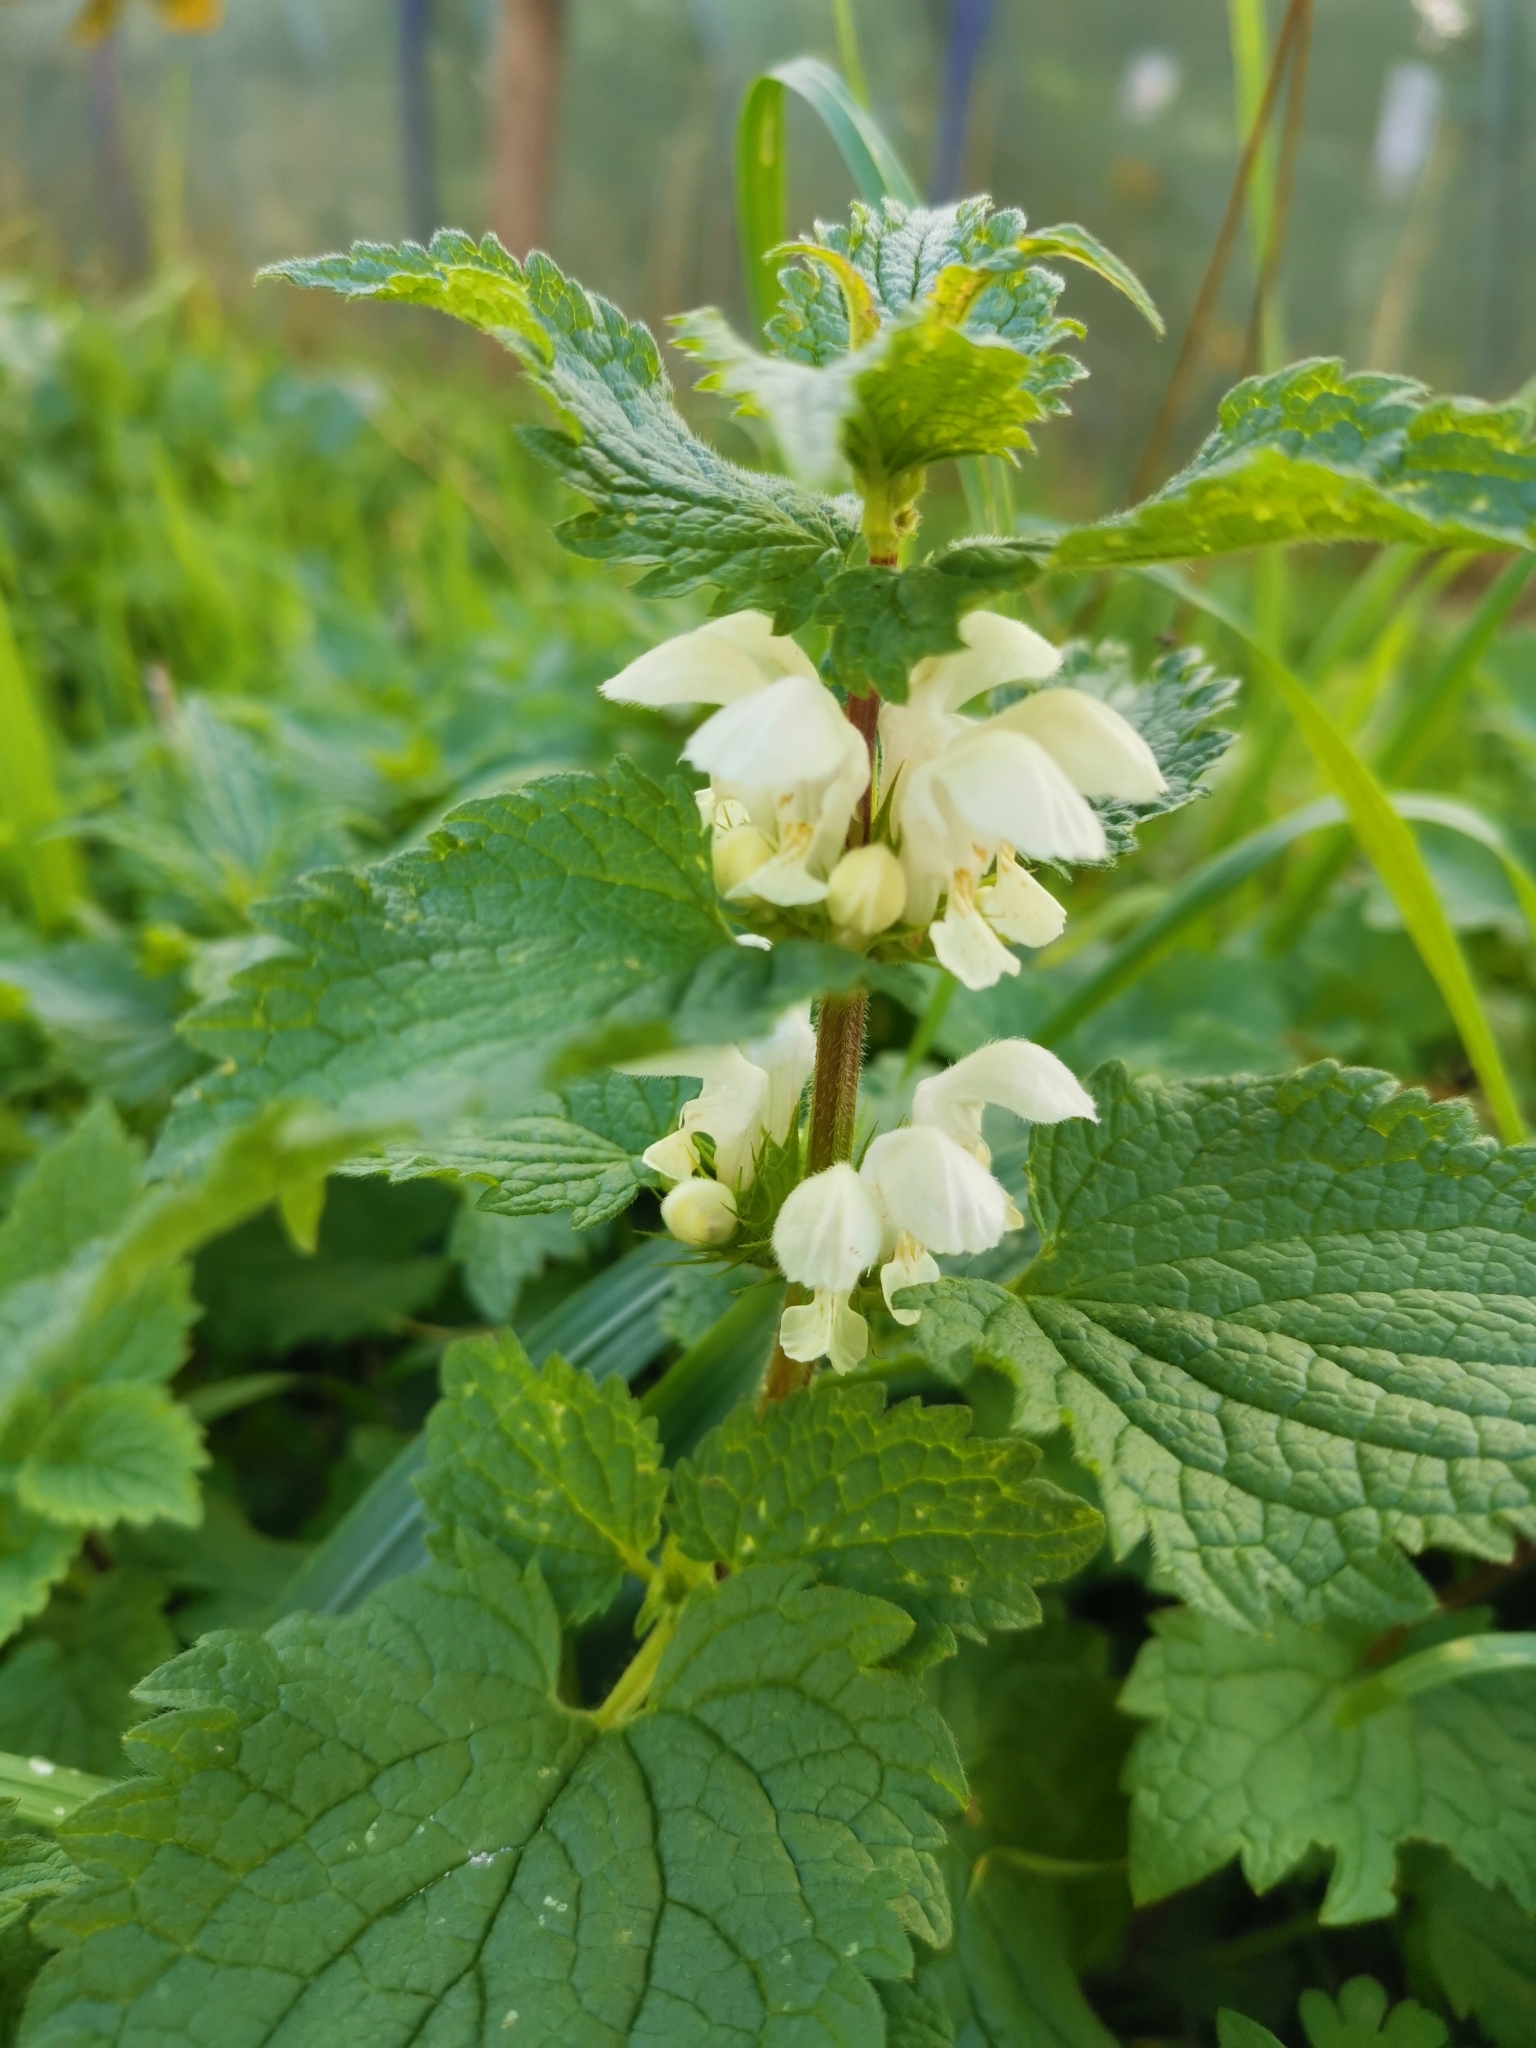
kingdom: Plantae
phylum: Tracheophyta
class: Magnoliopsida
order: Lamiales
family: Lamiaceae
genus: Lamium
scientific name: Lamium album
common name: White dead-nettle
